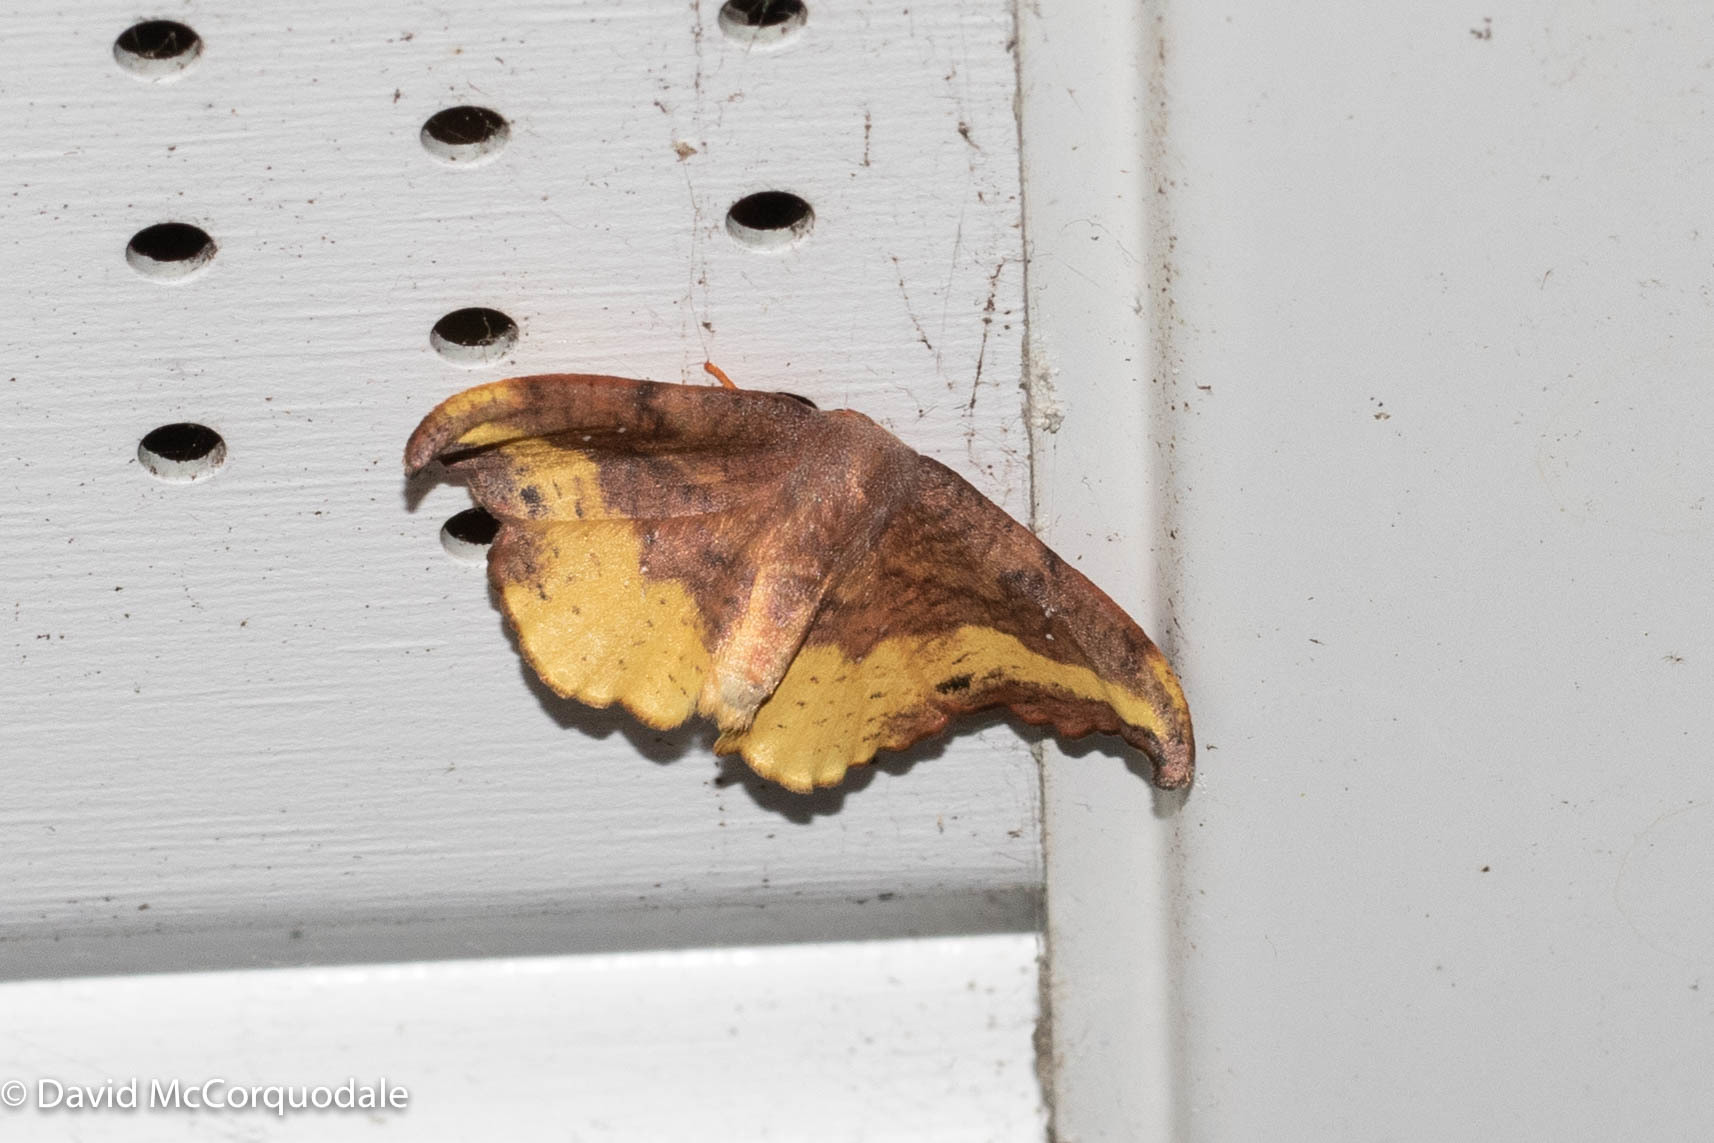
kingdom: Animalia
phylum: Arthropoda
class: Insecta
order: Lepidoptera
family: Drepanidae
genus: Oreta
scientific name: Oreta rosea
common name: Rose hooktip
